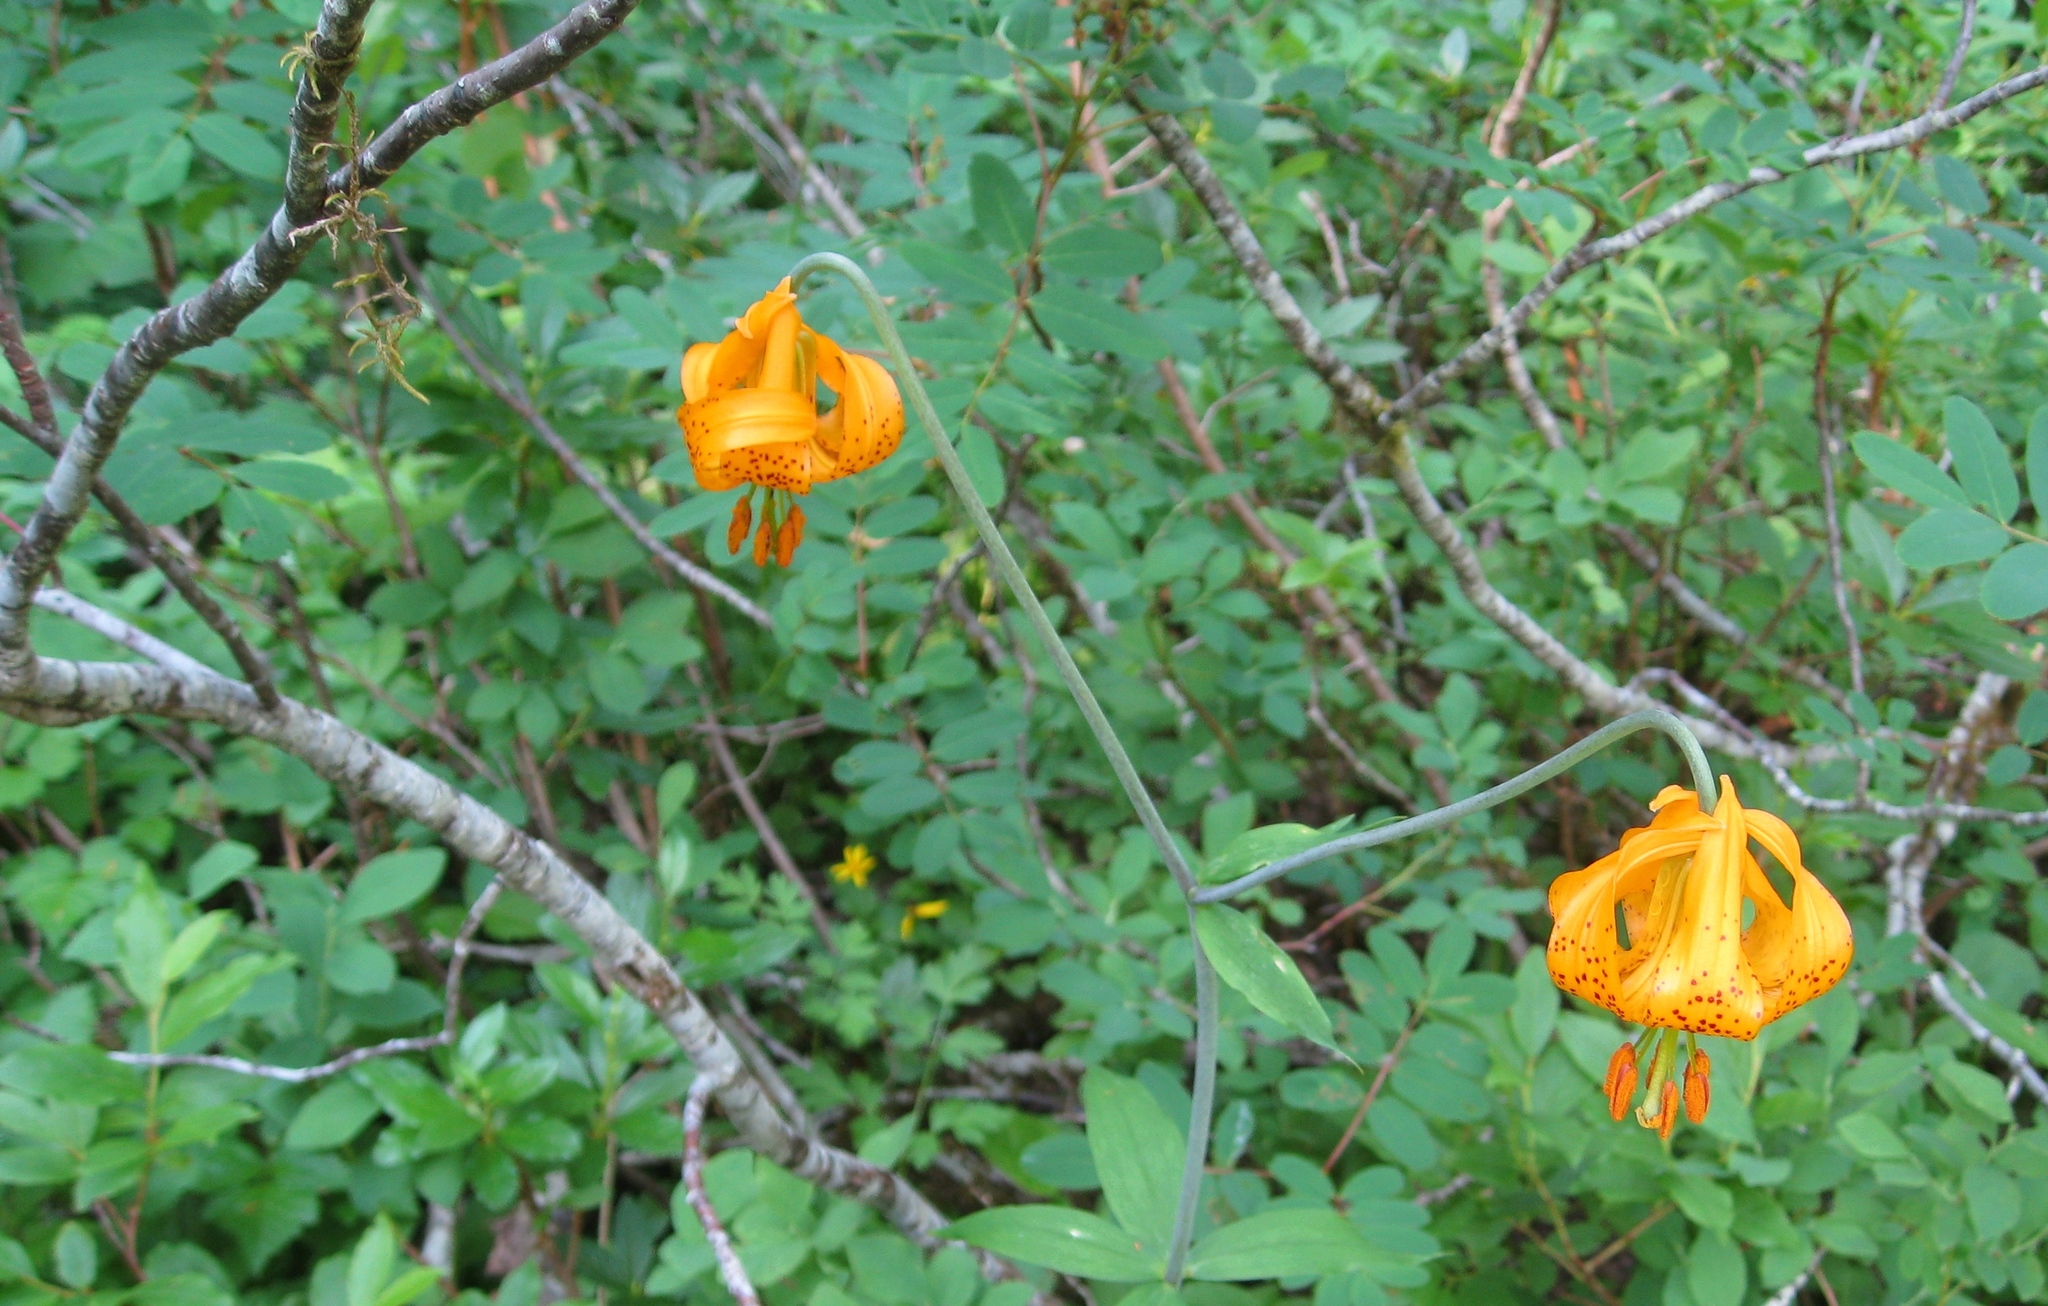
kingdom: Plantae
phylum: Tracheophyta
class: Liliopsida
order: Liliales
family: Liliaceae
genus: Lilium
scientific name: Lilium columbianum
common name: Columbia lily
